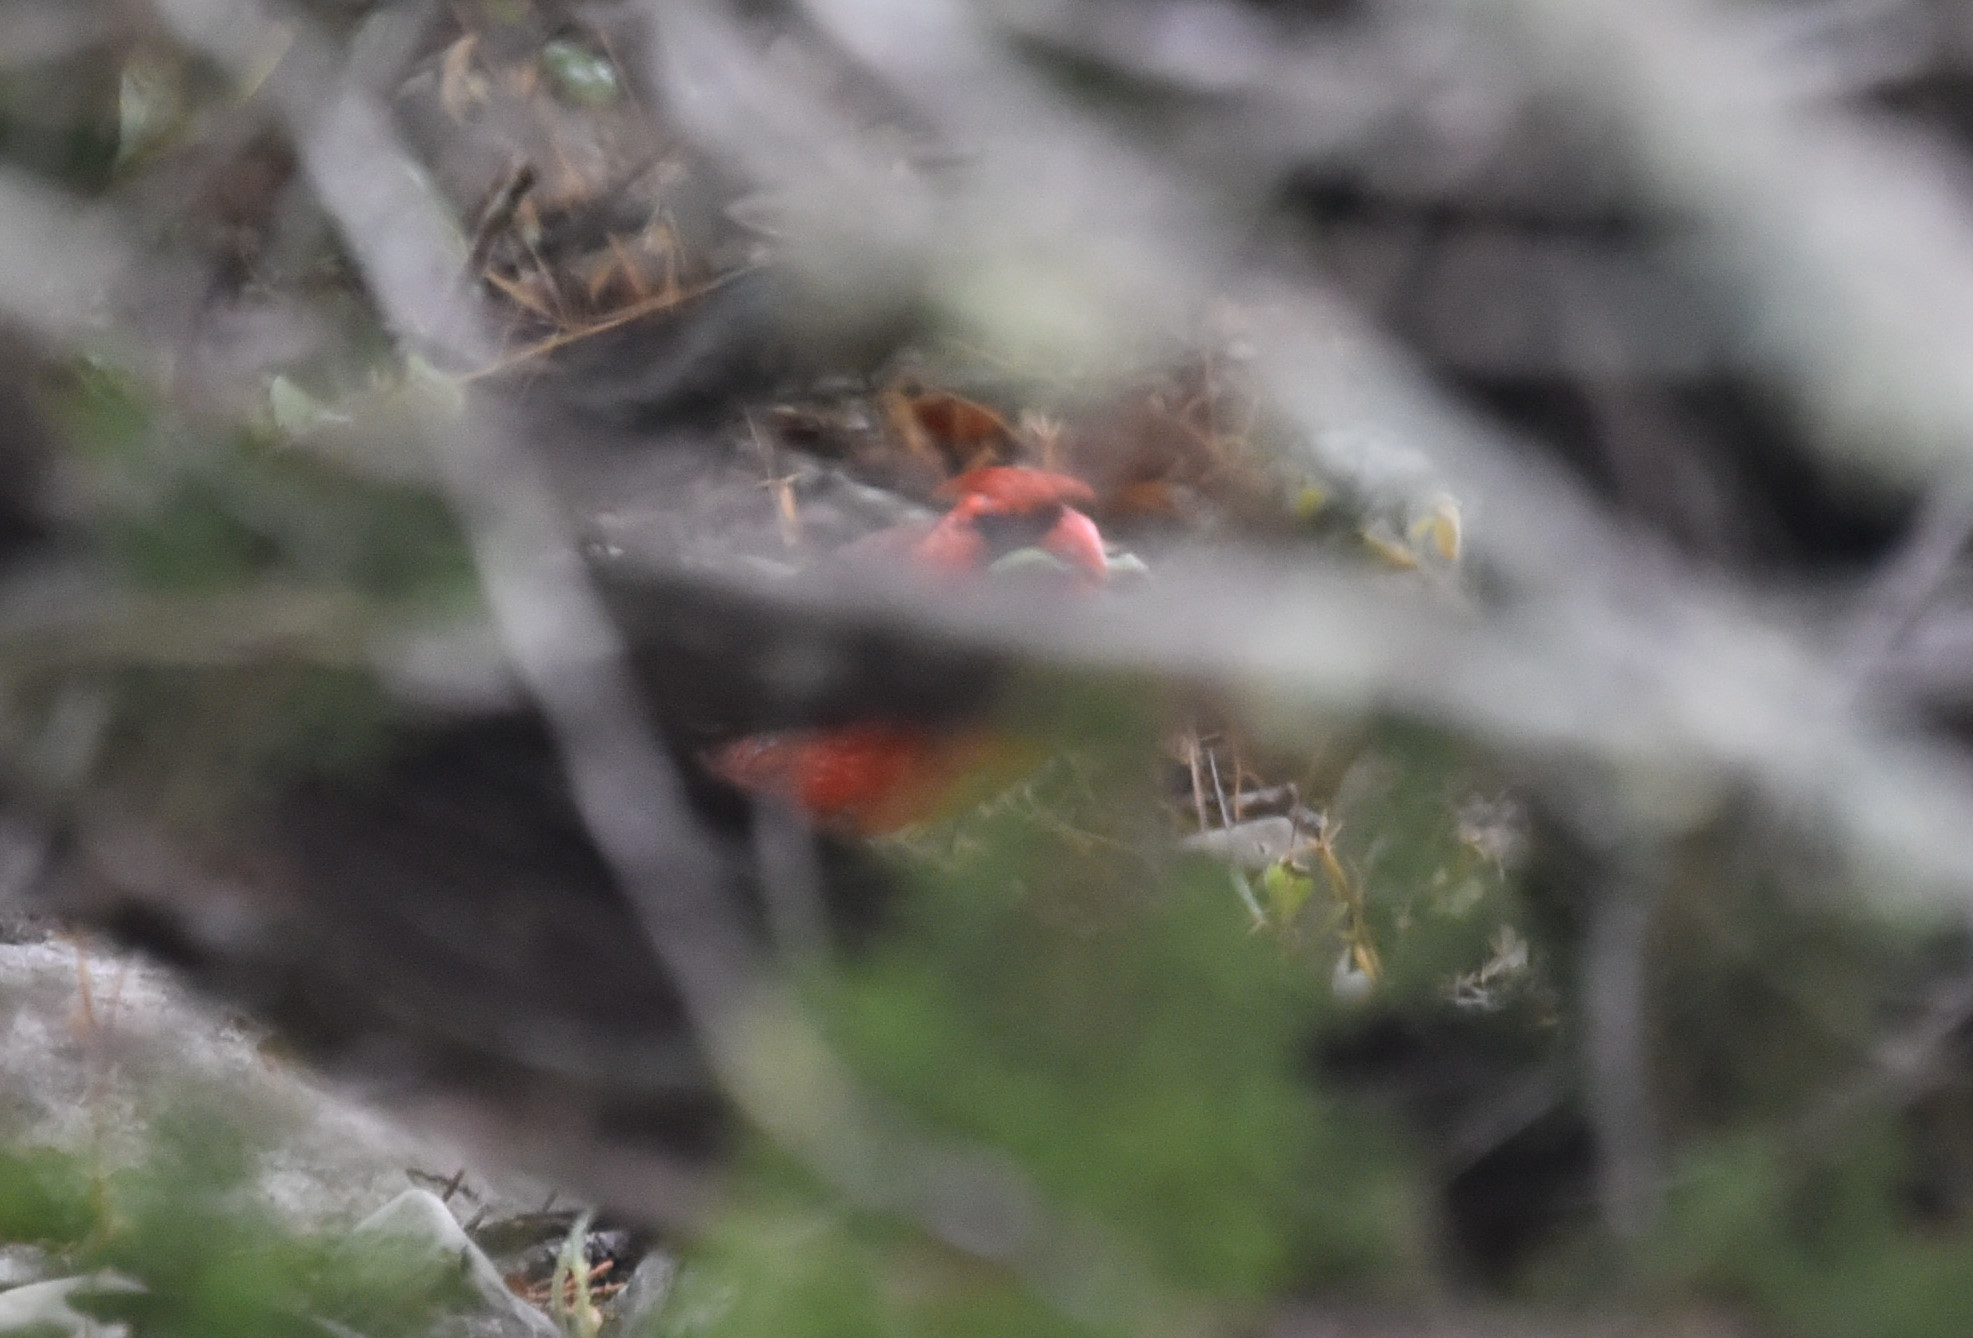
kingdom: Animalia
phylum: Chordata
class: Aves
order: Passeriformes
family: Cardinalidae
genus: Cardinalis
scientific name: Cardinalis cardinalis
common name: Northern cardinal
